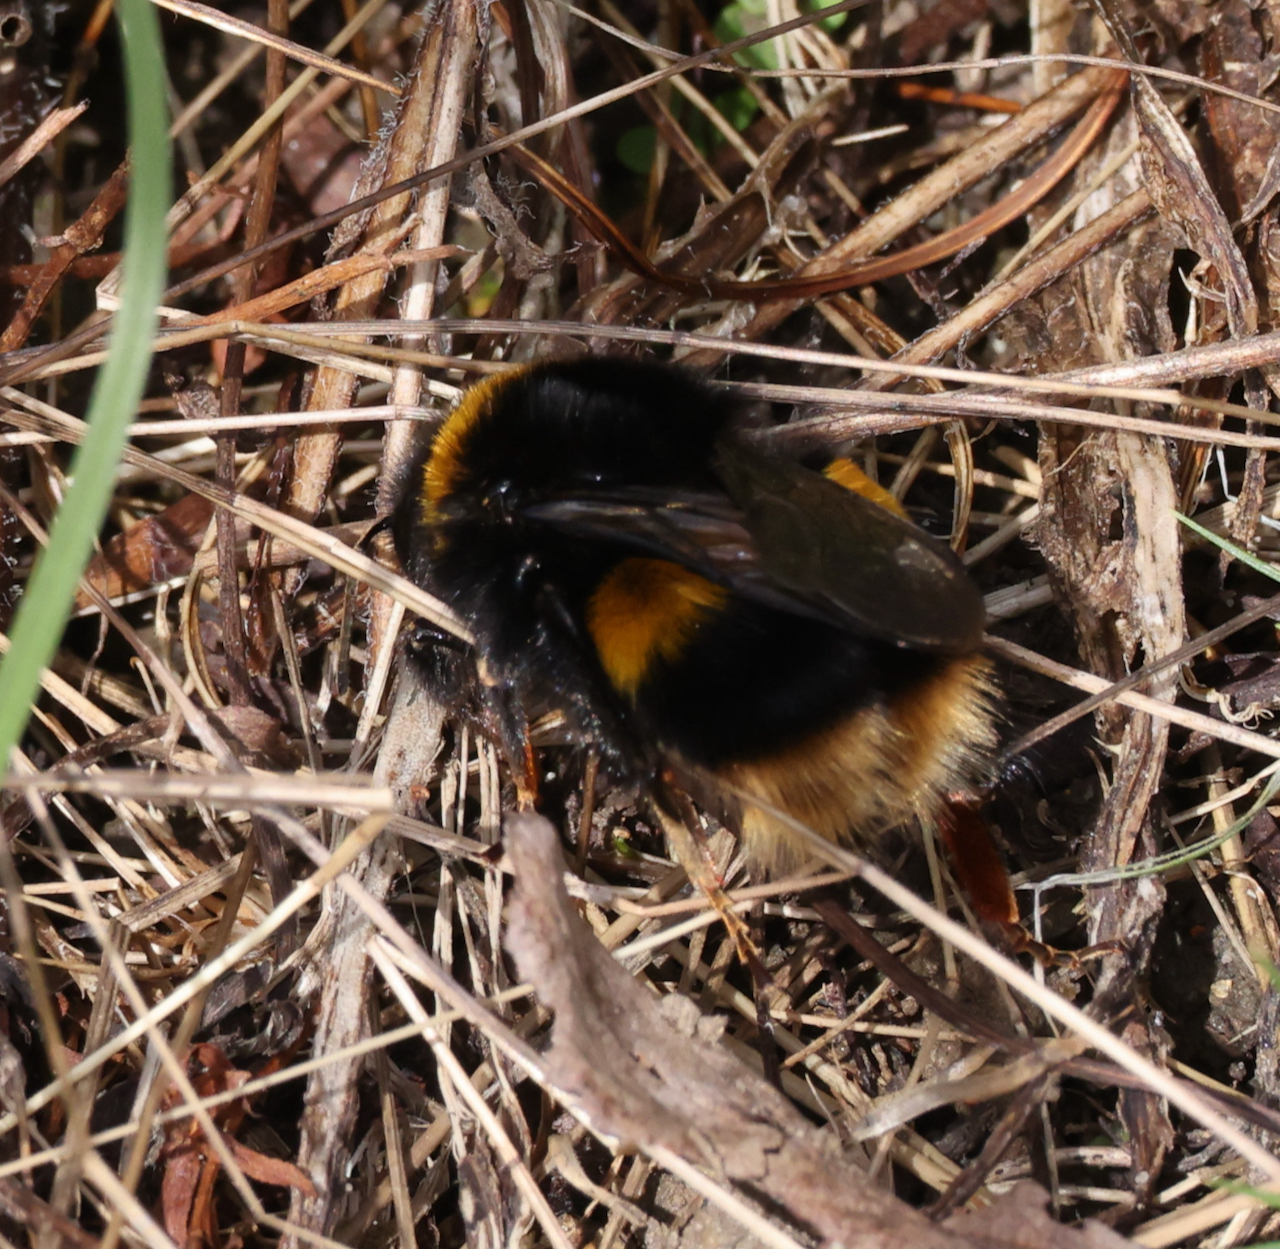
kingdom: Animalia
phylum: Arthropoda
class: Insecta
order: Hymenoptera
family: Apidae
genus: Bombus
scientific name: Bombus terrestris
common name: Buff-tailed bumblebee
